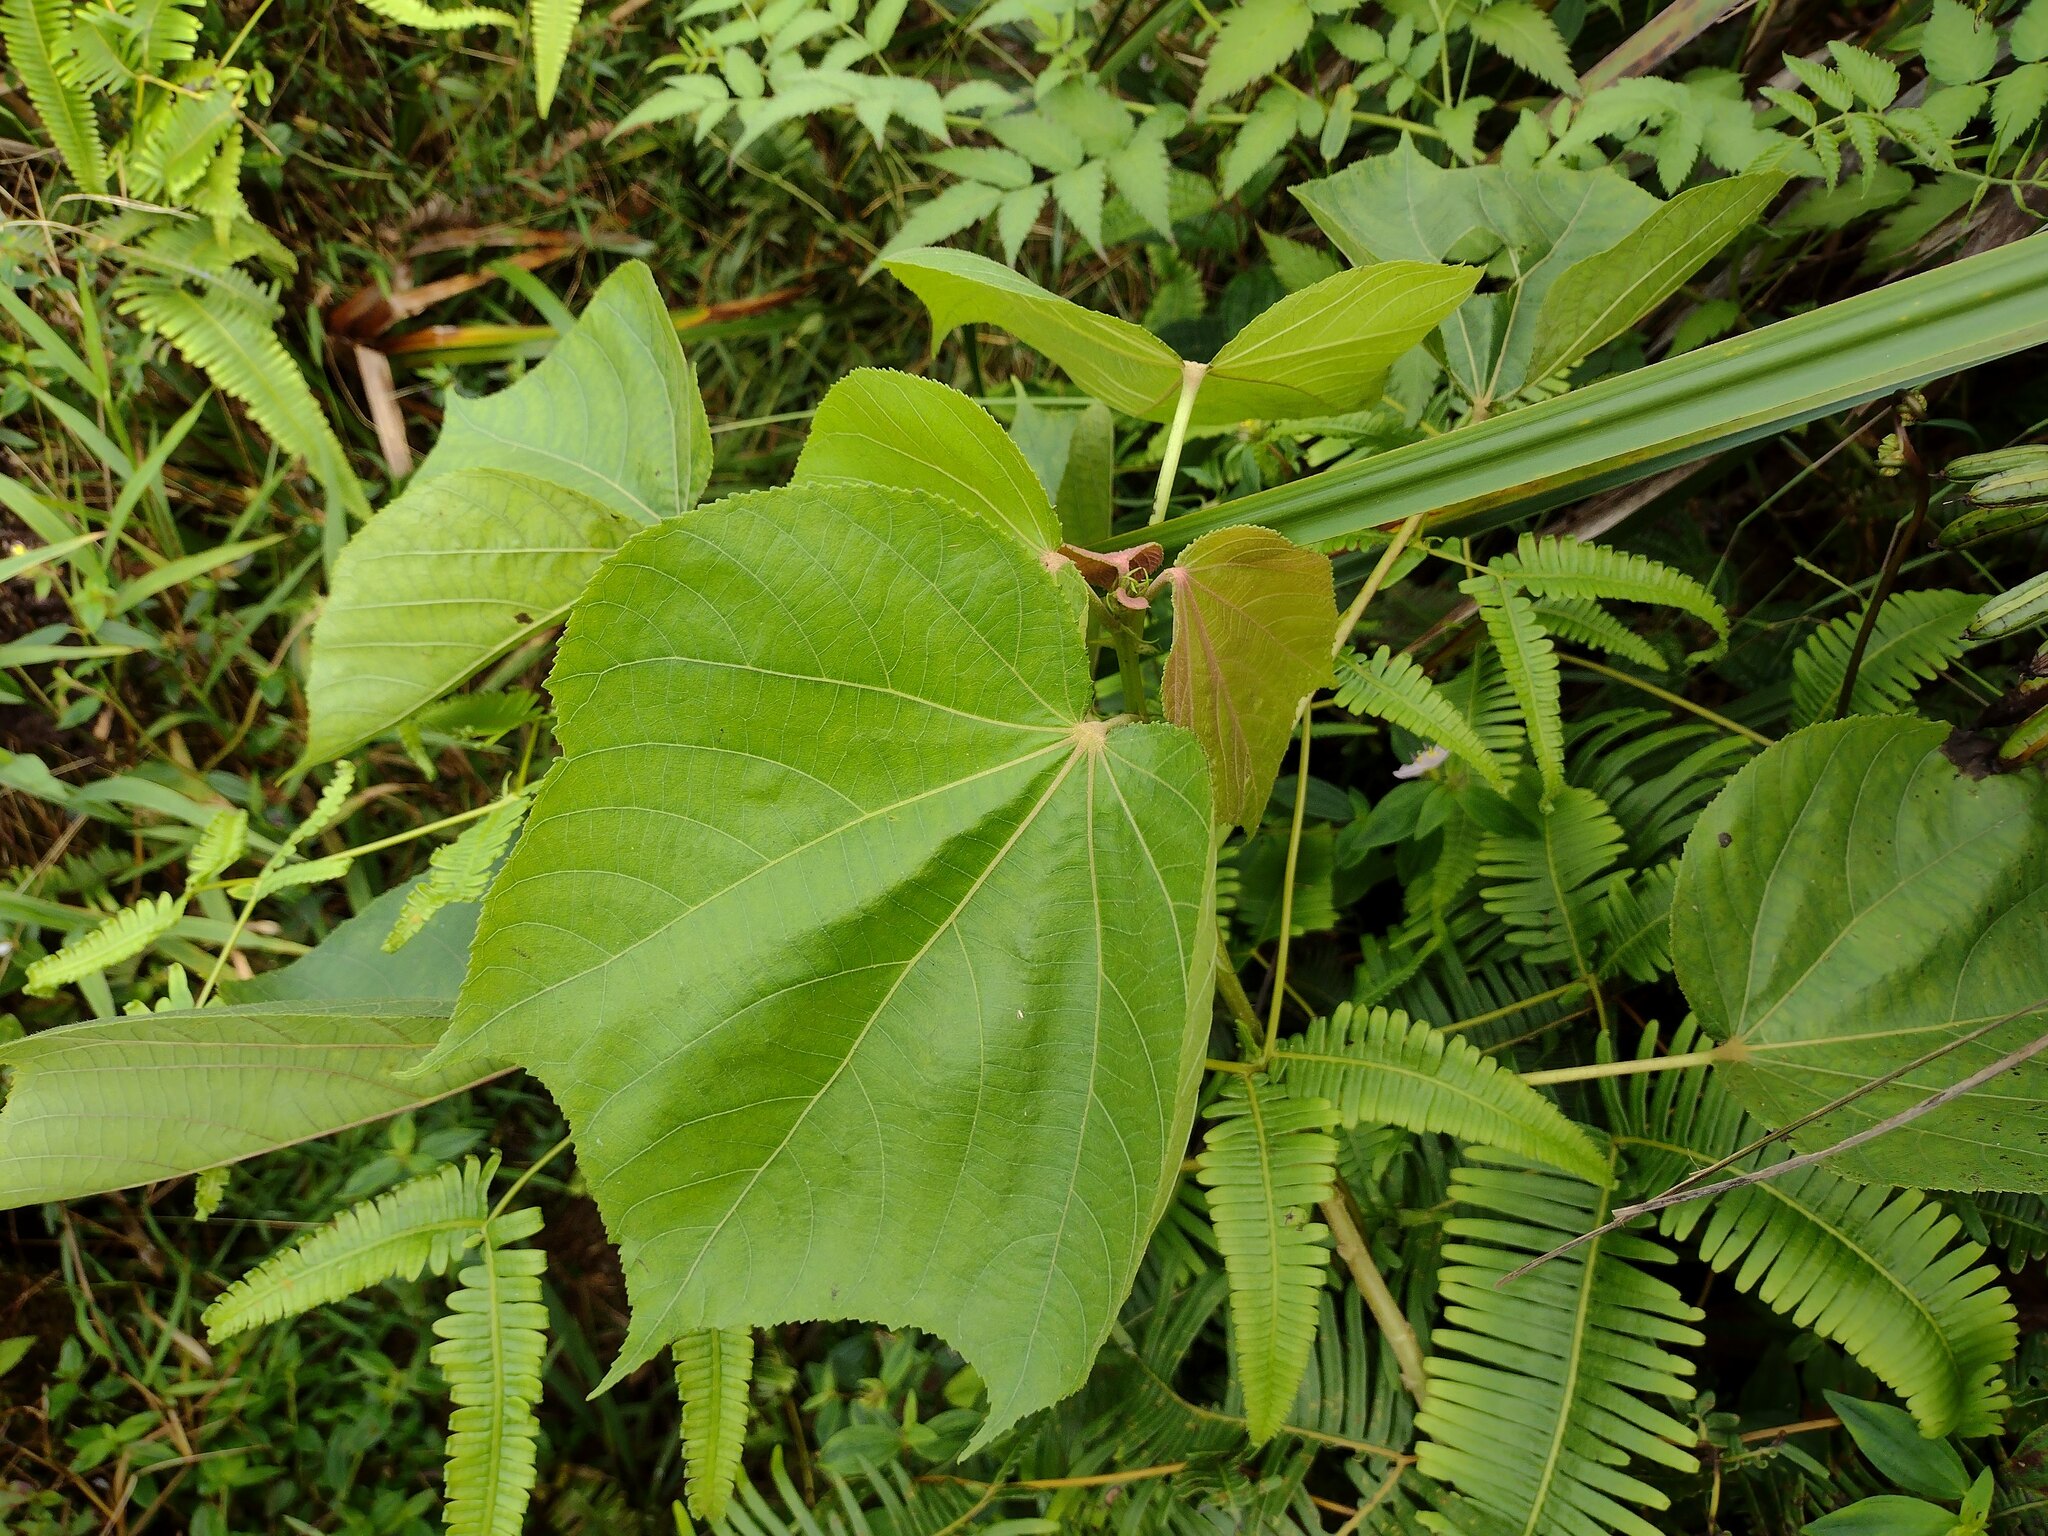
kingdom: Plantae
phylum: Tracheophyta
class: Magnoliopsida
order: Malvales
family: Malvaceae
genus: Heliocarpus
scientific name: Heliocarpus americanus
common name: White moho
